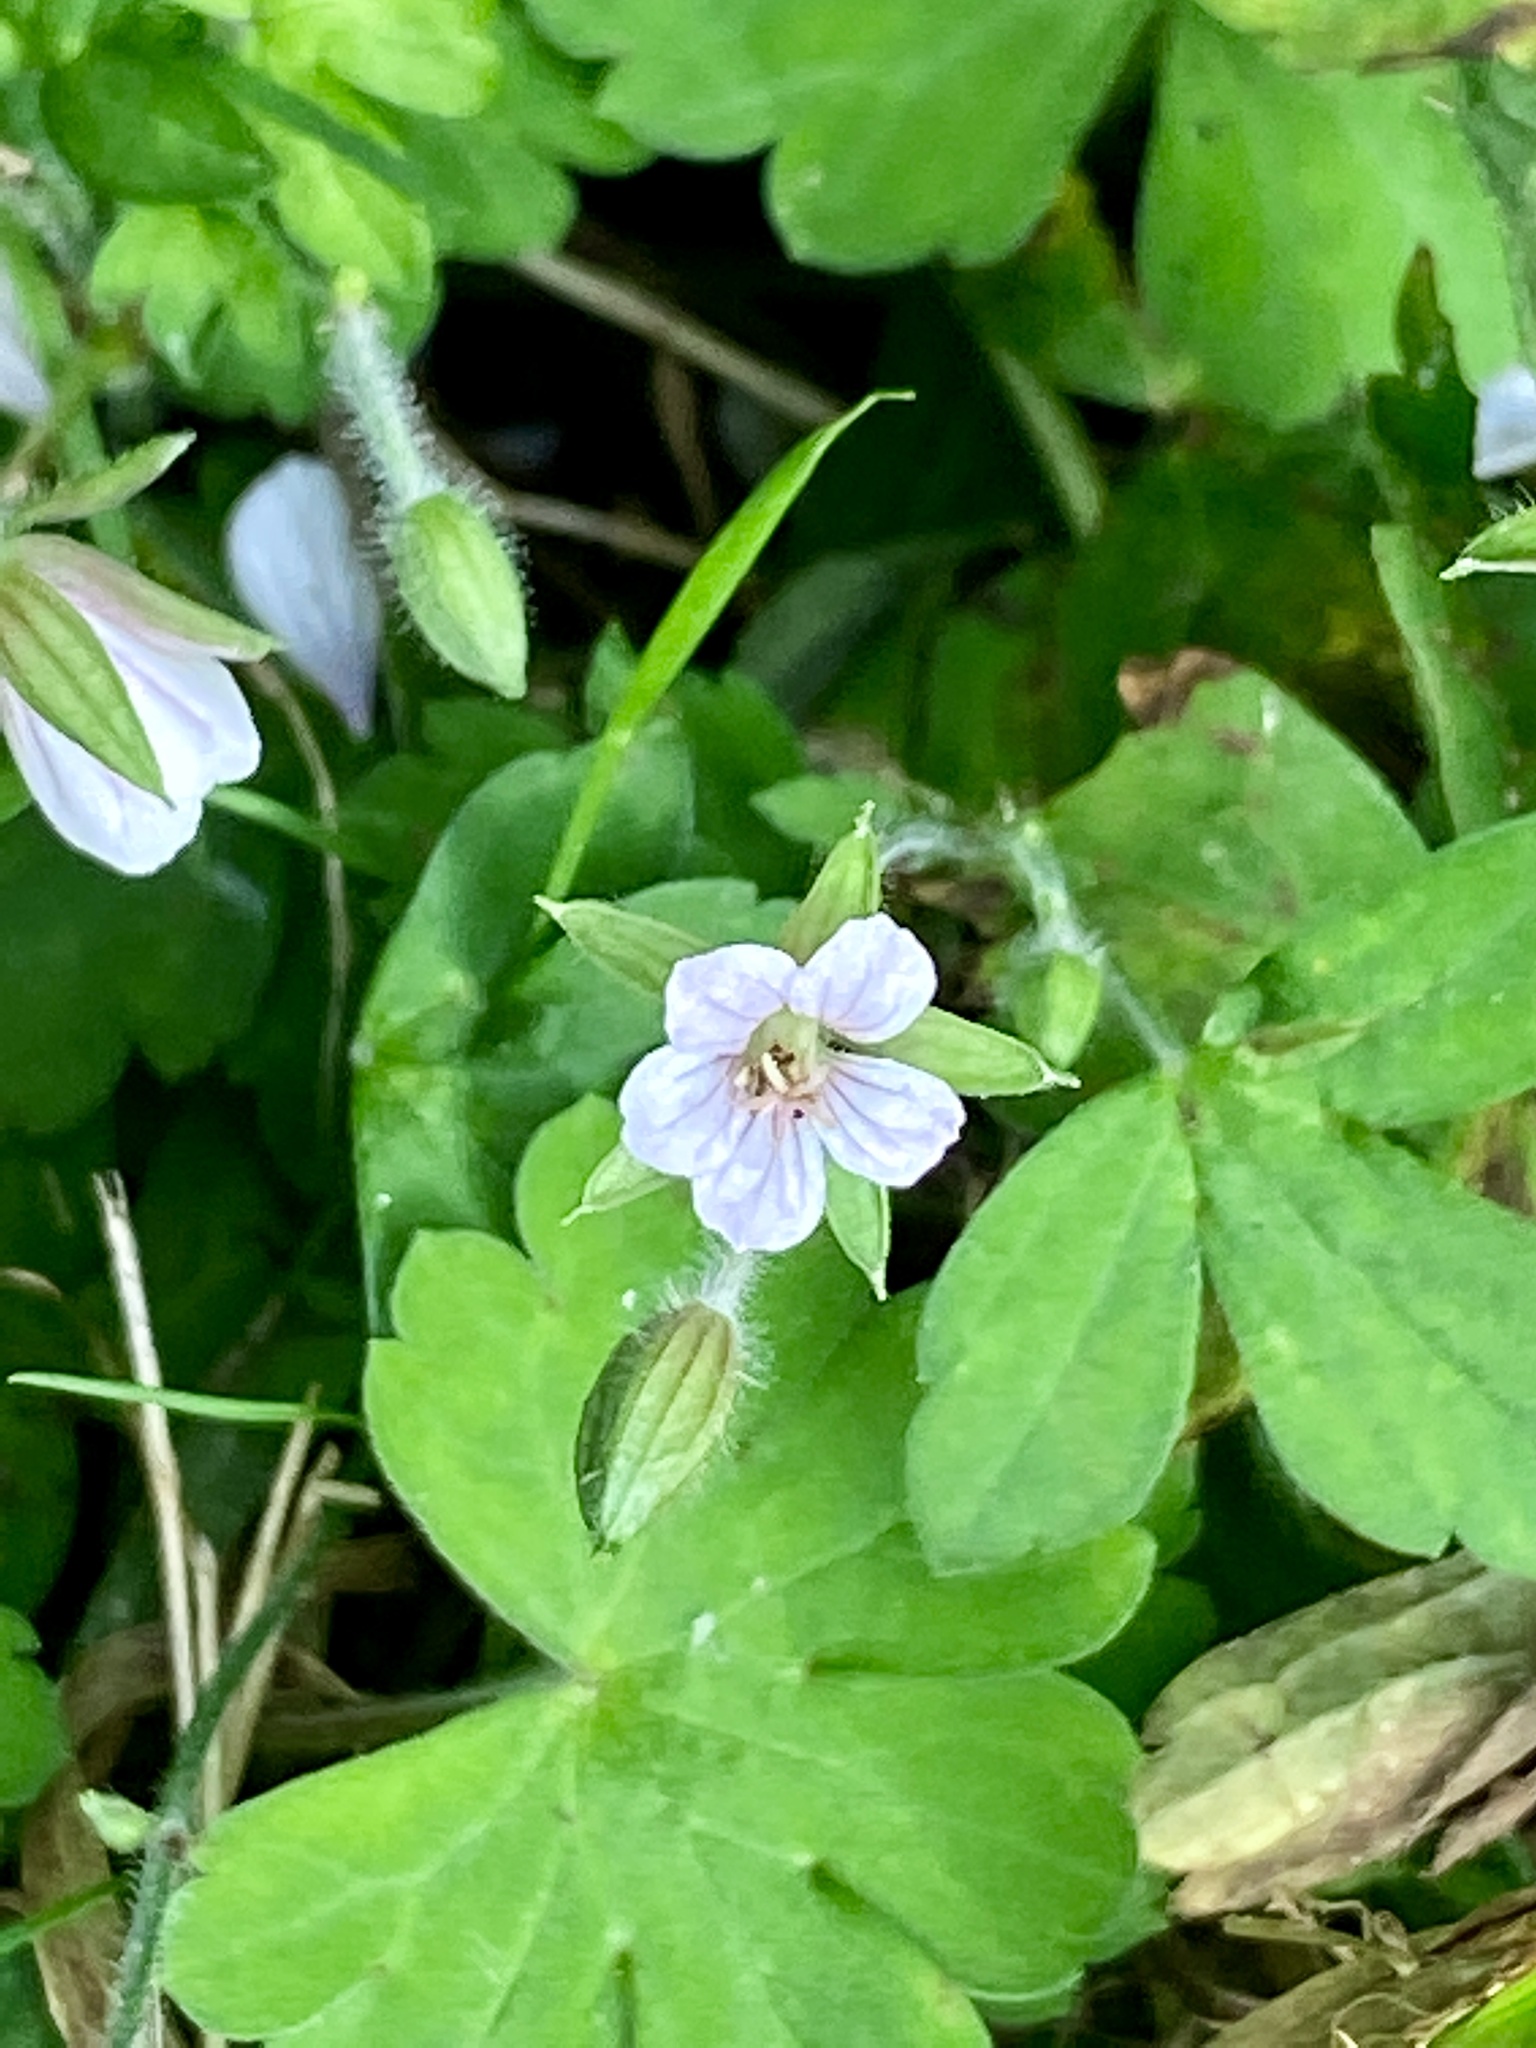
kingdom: Plantae
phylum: Tracheophyta
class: Magnoliopsida
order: Geraniales
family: Geraniaceae
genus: Geranium
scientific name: Geranium thunbergii
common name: Dewdrop crane's-bill
